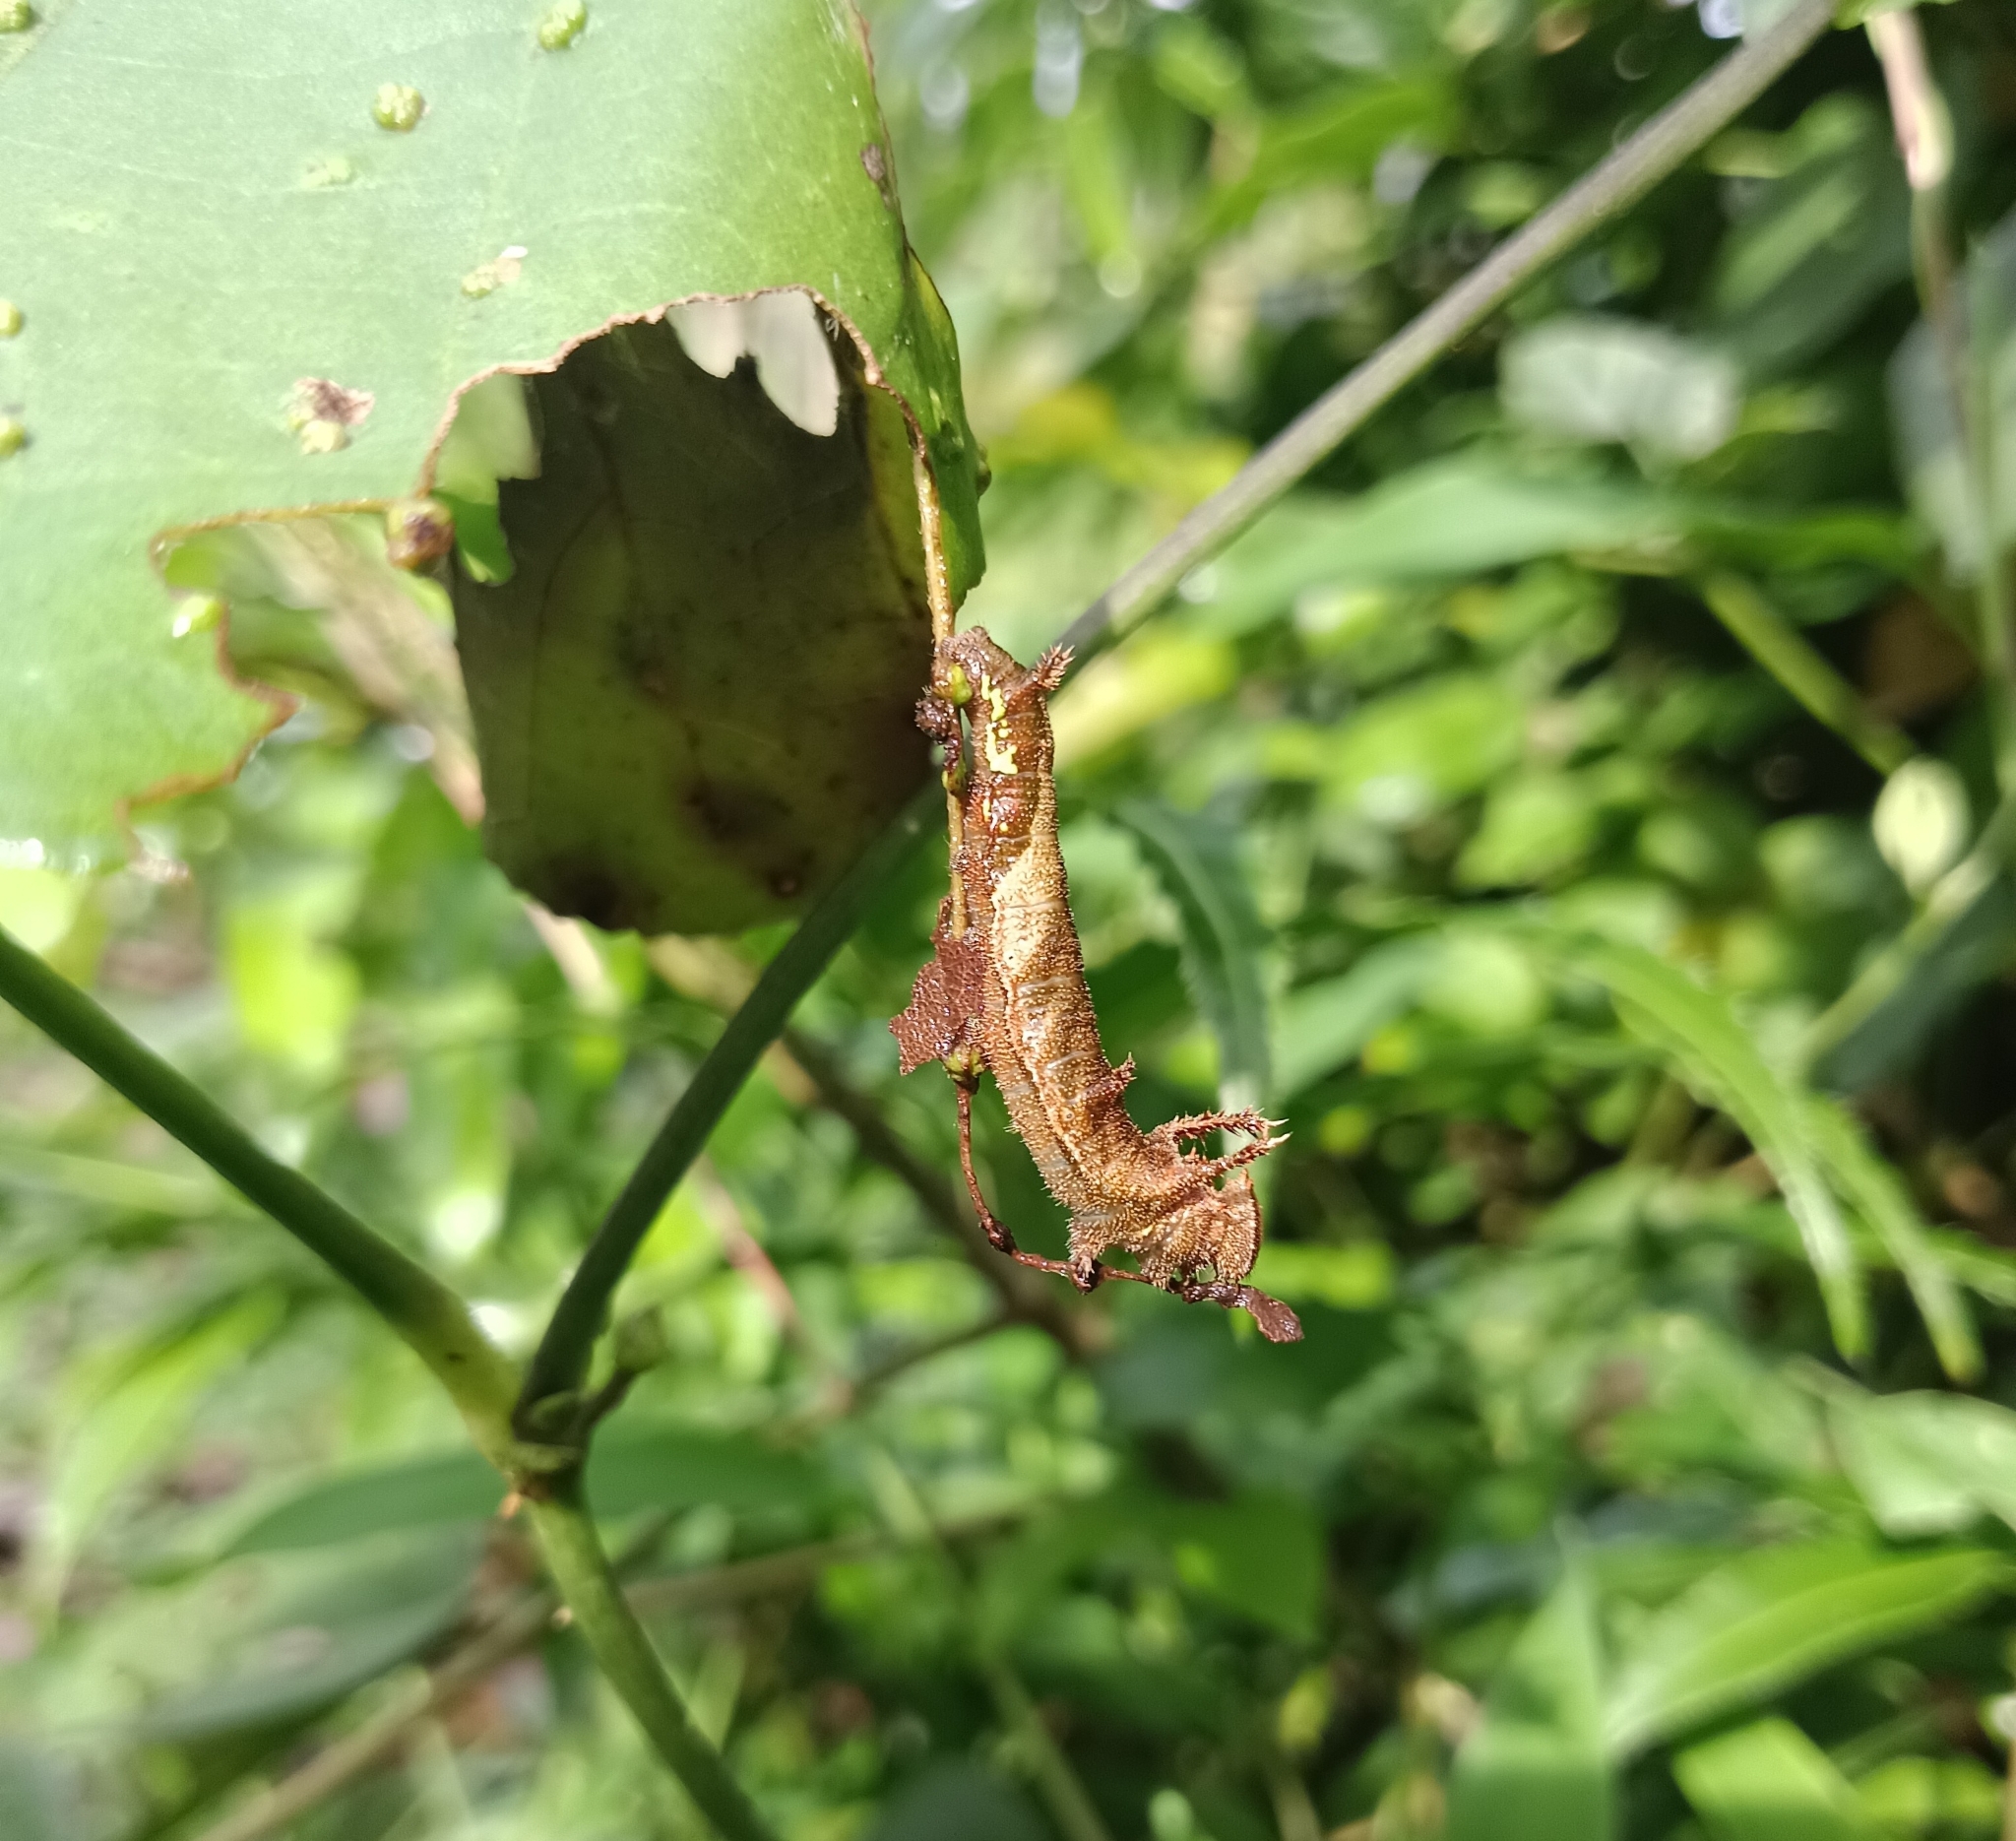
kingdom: Animalia
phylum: Arthropoda
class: Insecta
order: Lepidoptera
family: Nymphalidae
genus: Neptis
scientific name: Neptis jumbah
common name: Chestnut-streaked sailer
